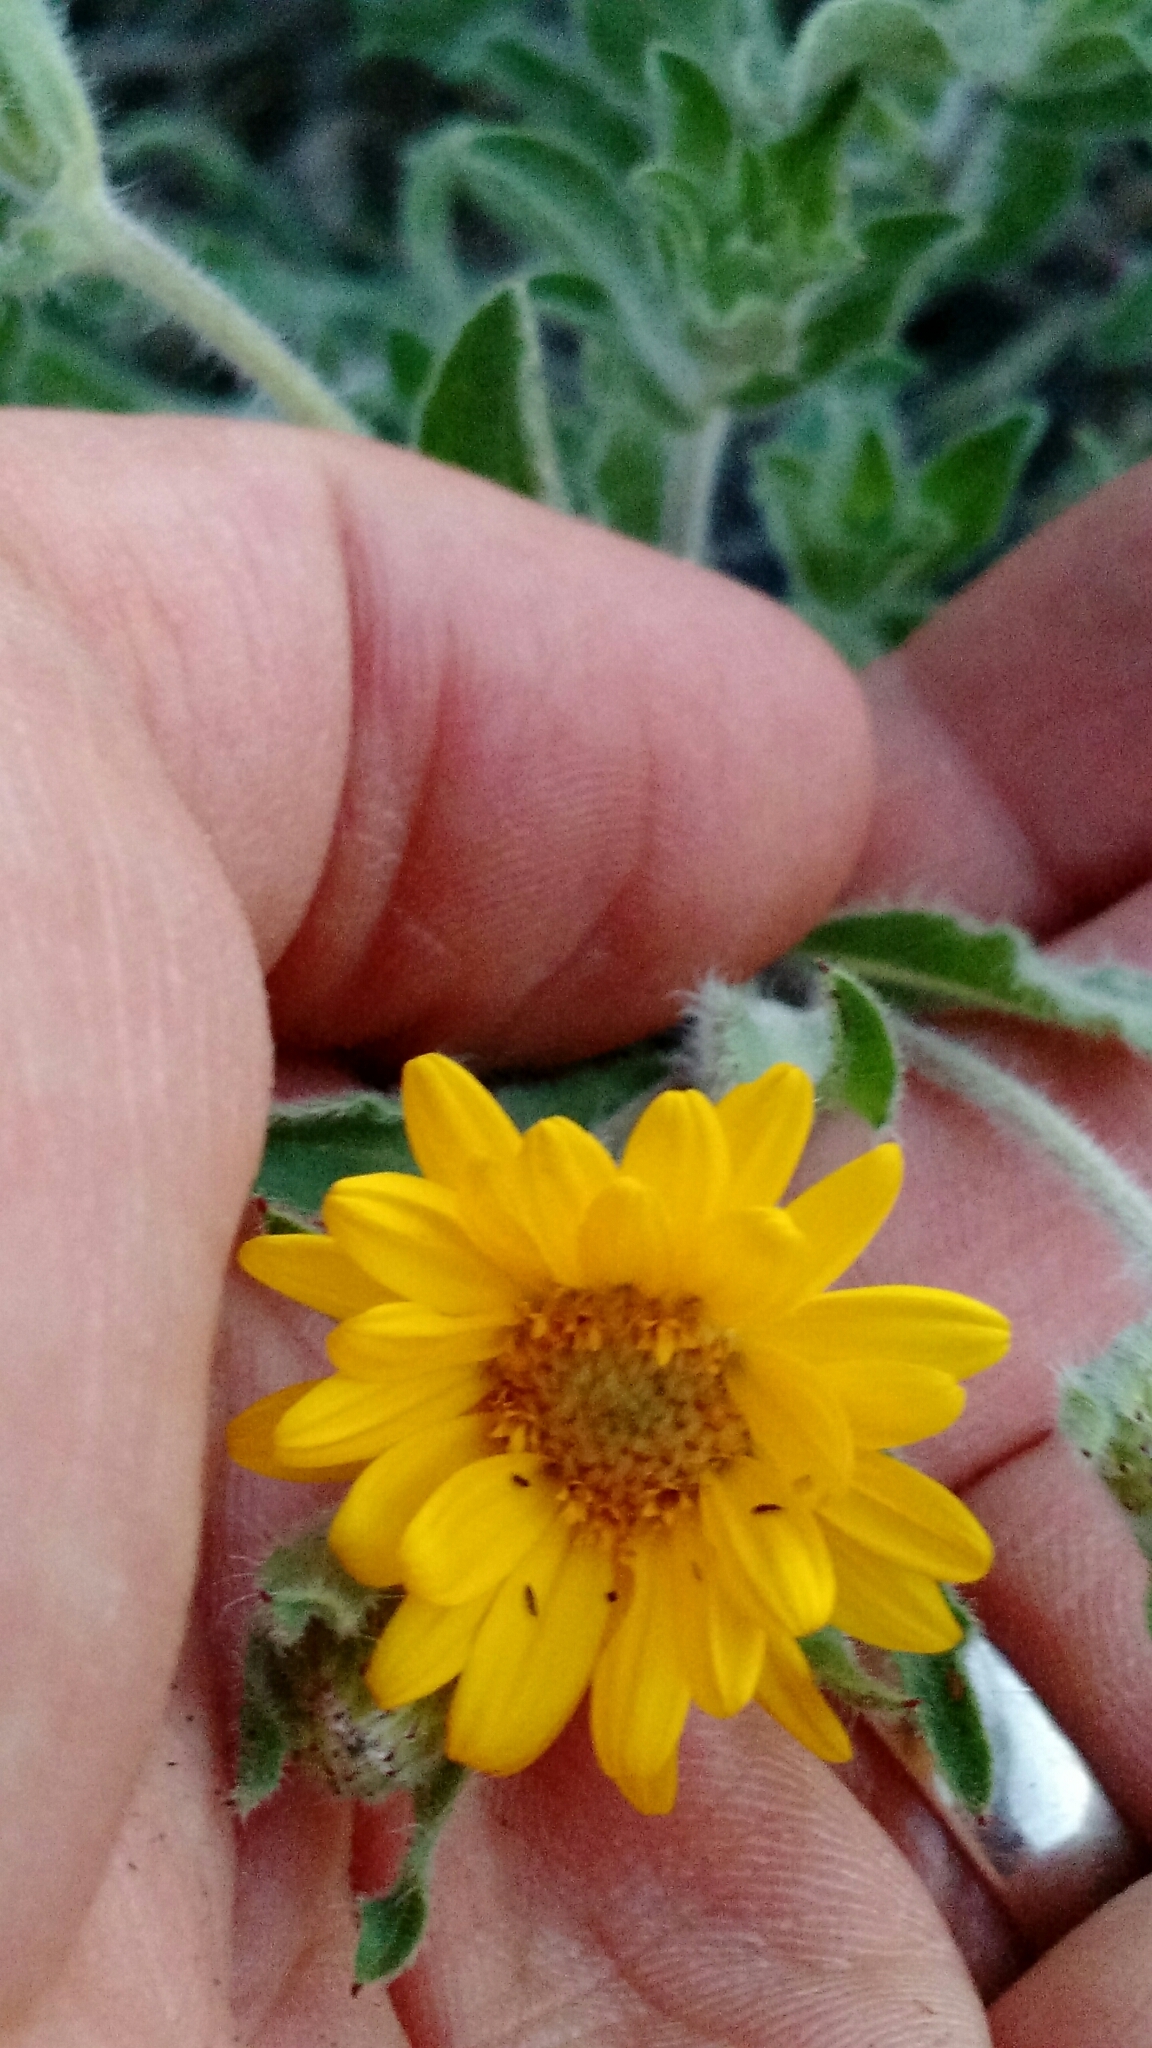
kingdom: Plantae
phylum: Tracheophyta
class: Magnoliopsida
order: Asterales
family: Asteraceae
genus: Heterotheca
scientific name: Heterotheca villosa
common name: Hairy false goldenaster
